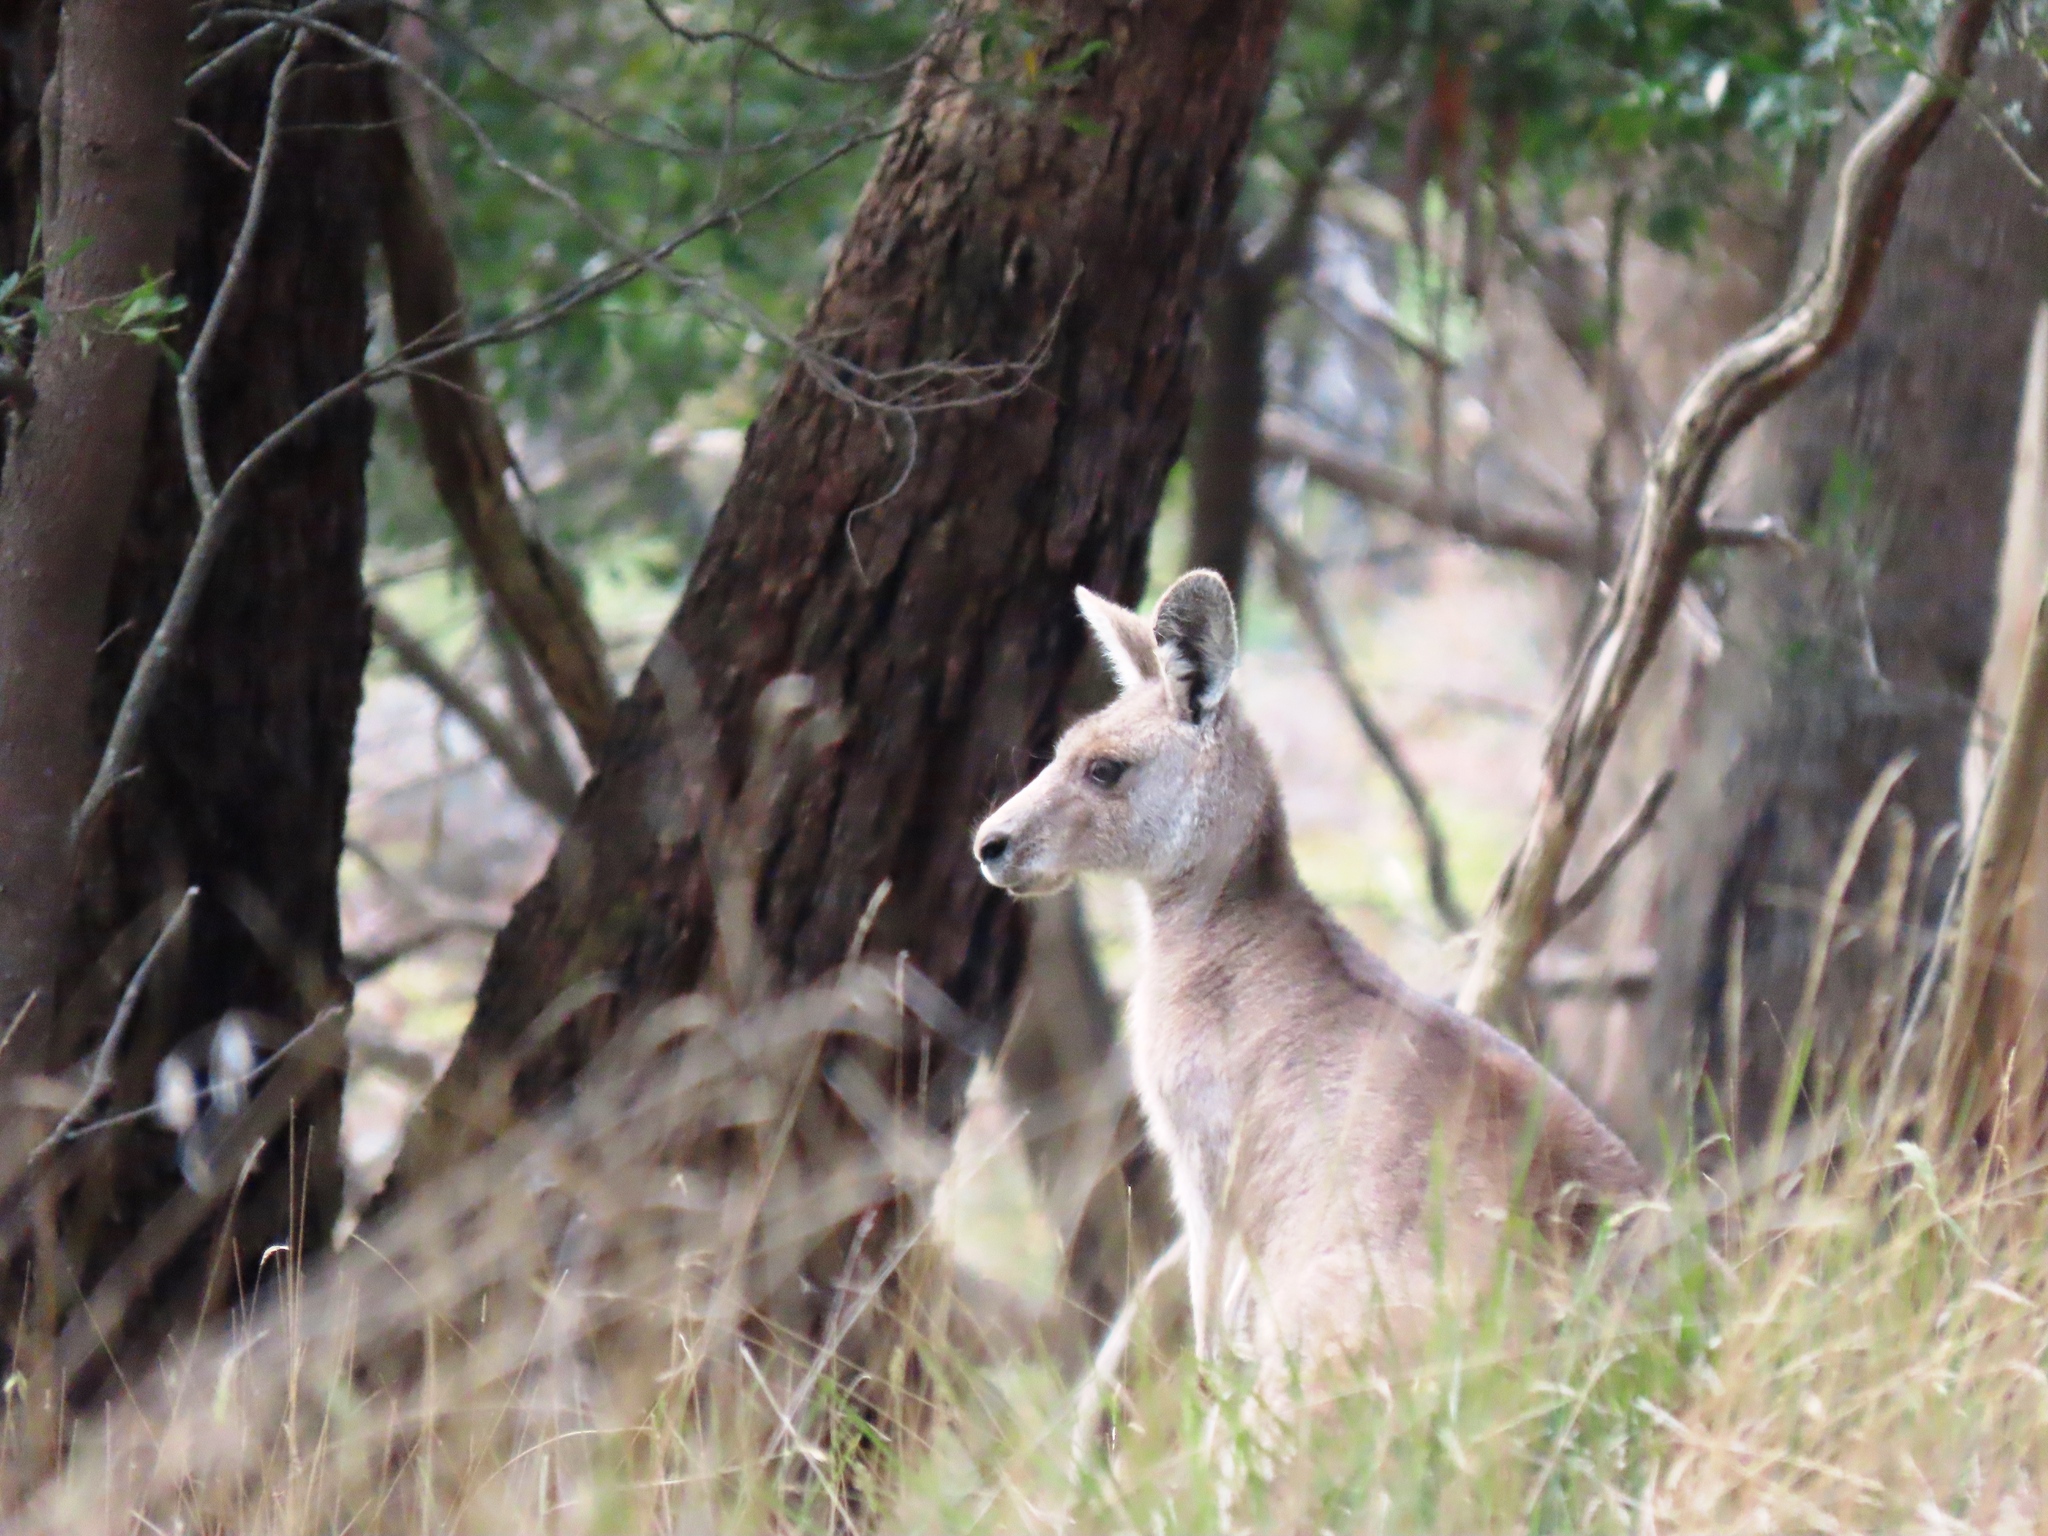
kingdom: Animalia
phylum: Chordata
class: Mammalia
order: Diprotodontia
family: Macropodidae
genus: Macropus
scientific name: Macropus giganteus
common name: Eastern grey kangaroo
